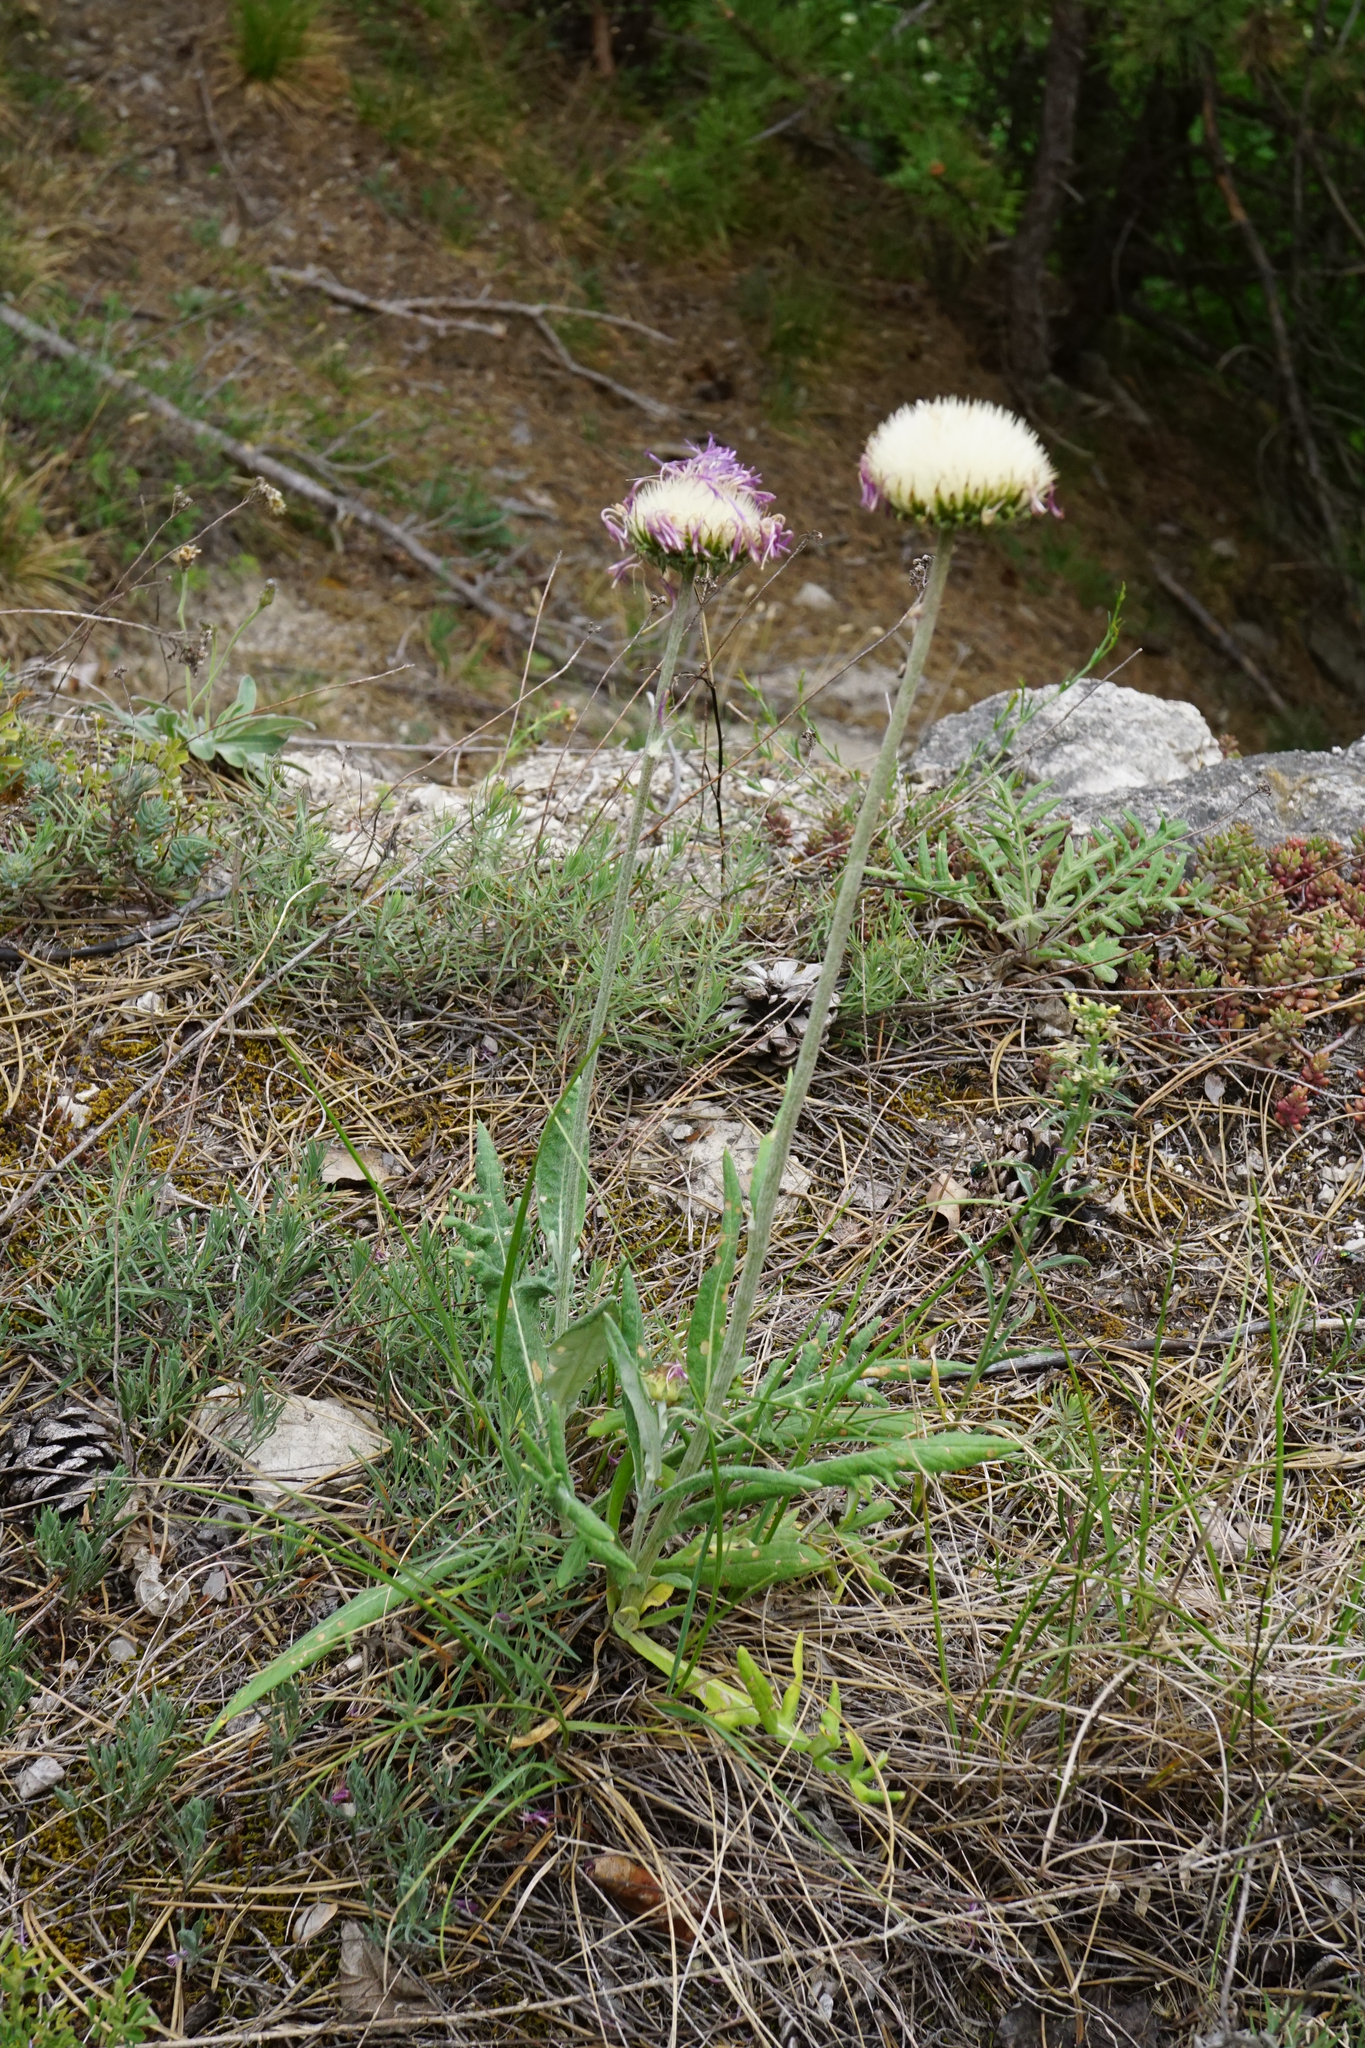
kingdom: Plantae
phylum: Tracheophyta
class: Magnoliopsida
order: Asterales
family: Asteraceae
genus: Jurinea
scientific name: Jurinea mollis
